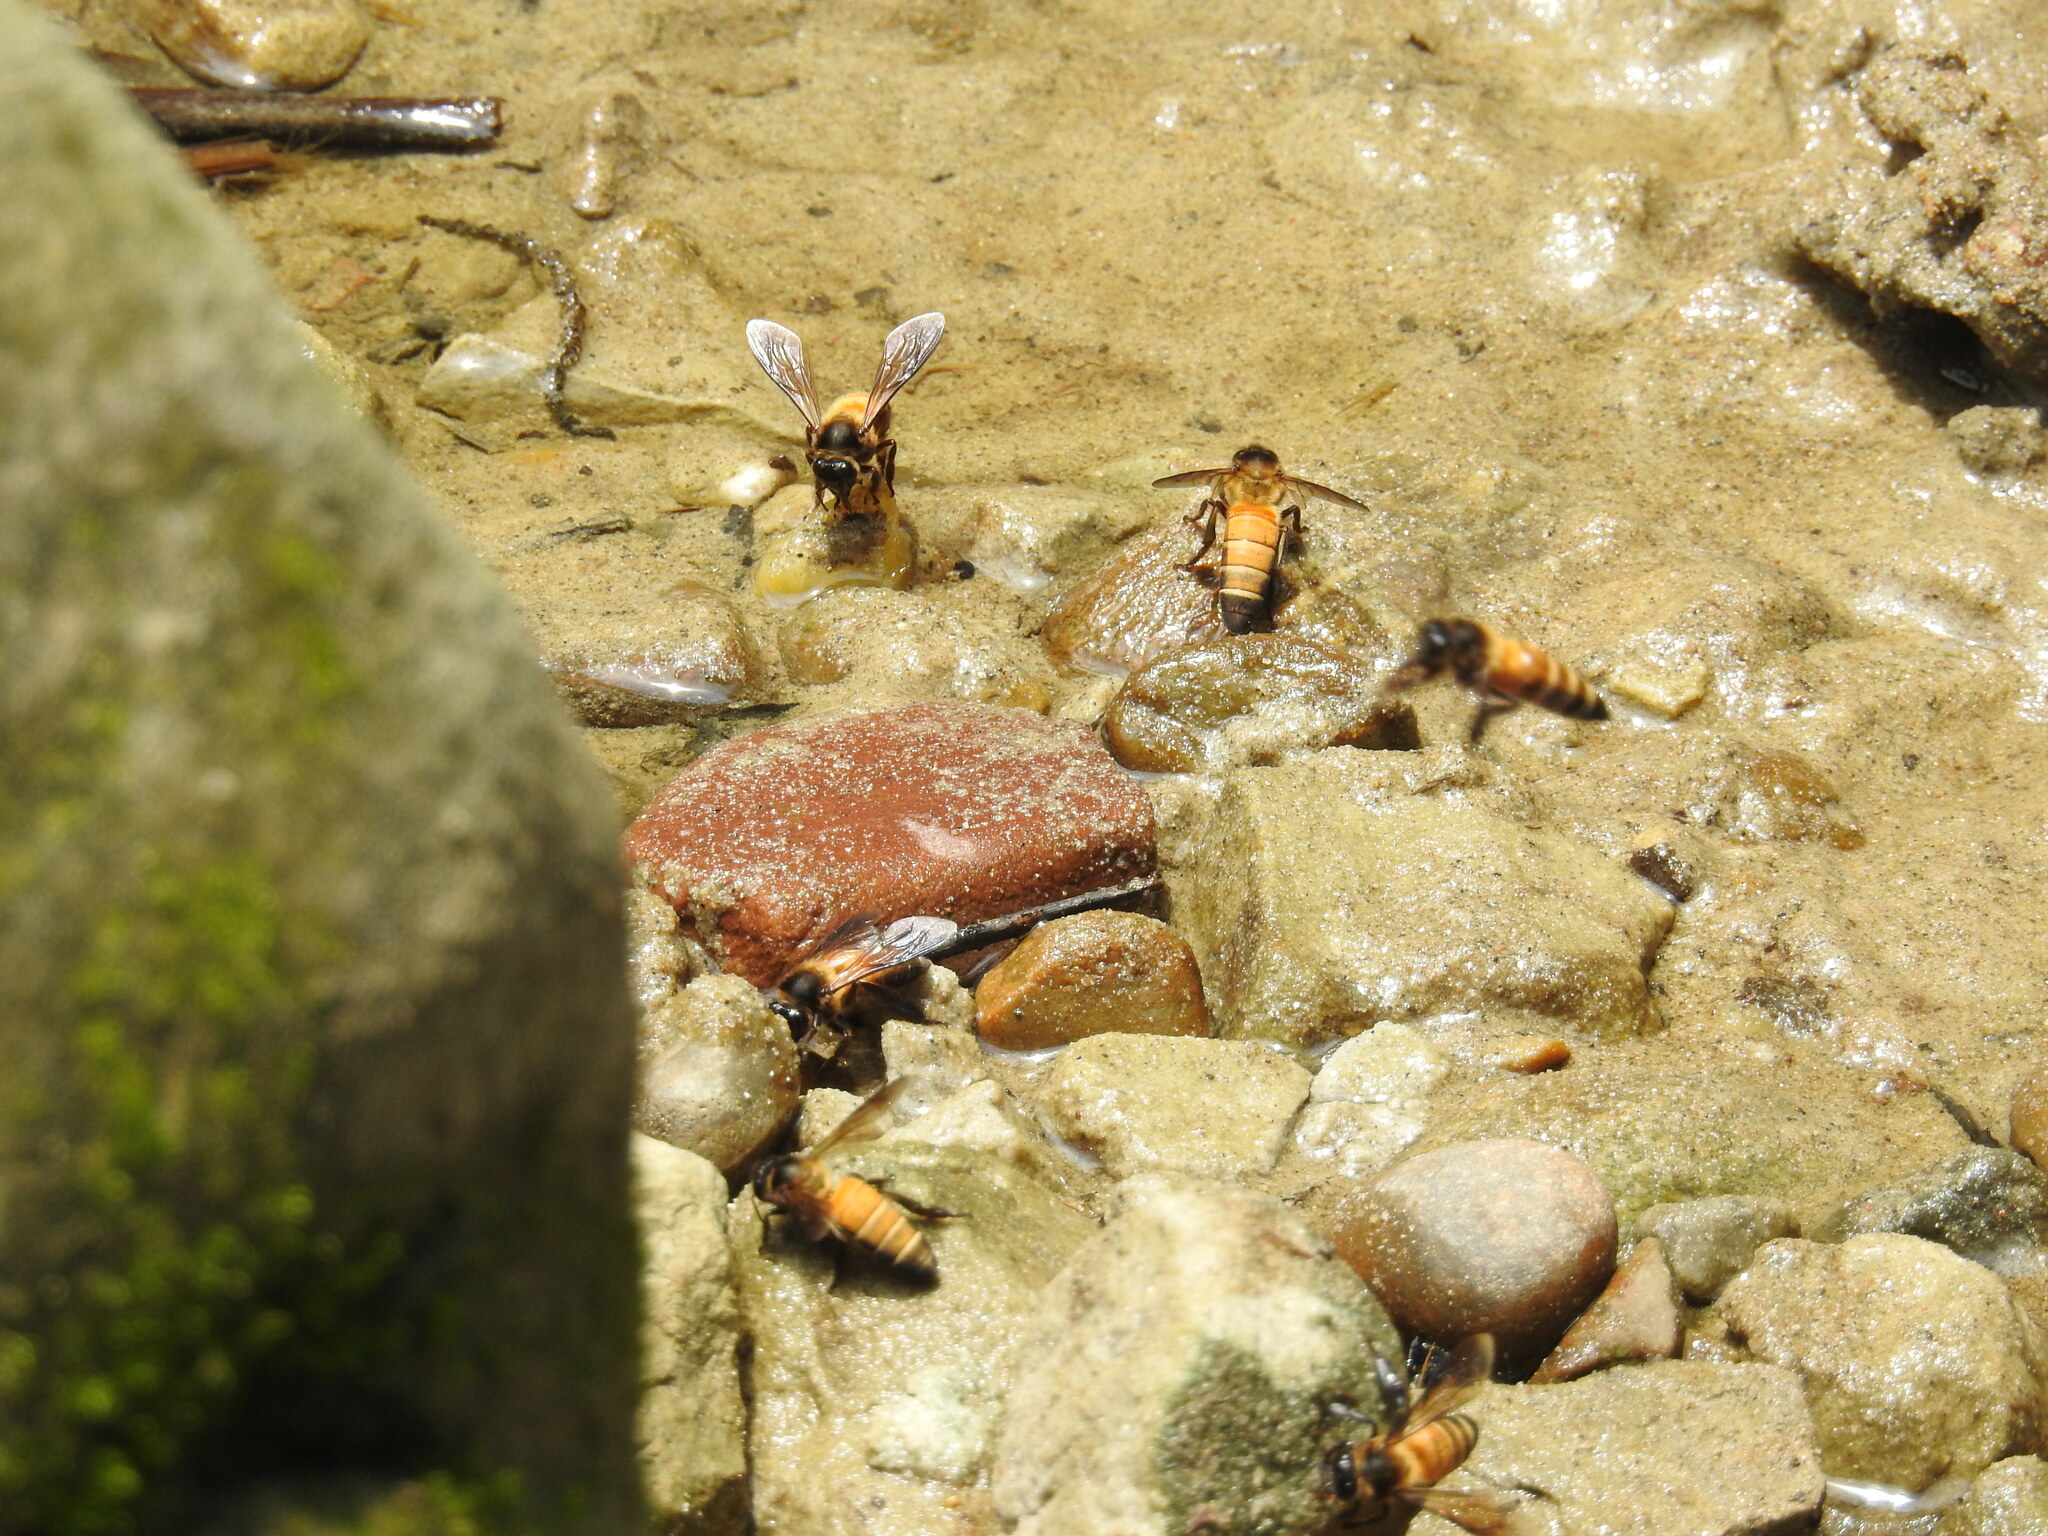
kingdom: Animalia
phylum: Arthropoda
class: Insecta
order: Hymenoptera
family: Apidae
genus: Apis
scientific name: Apis dorsata
